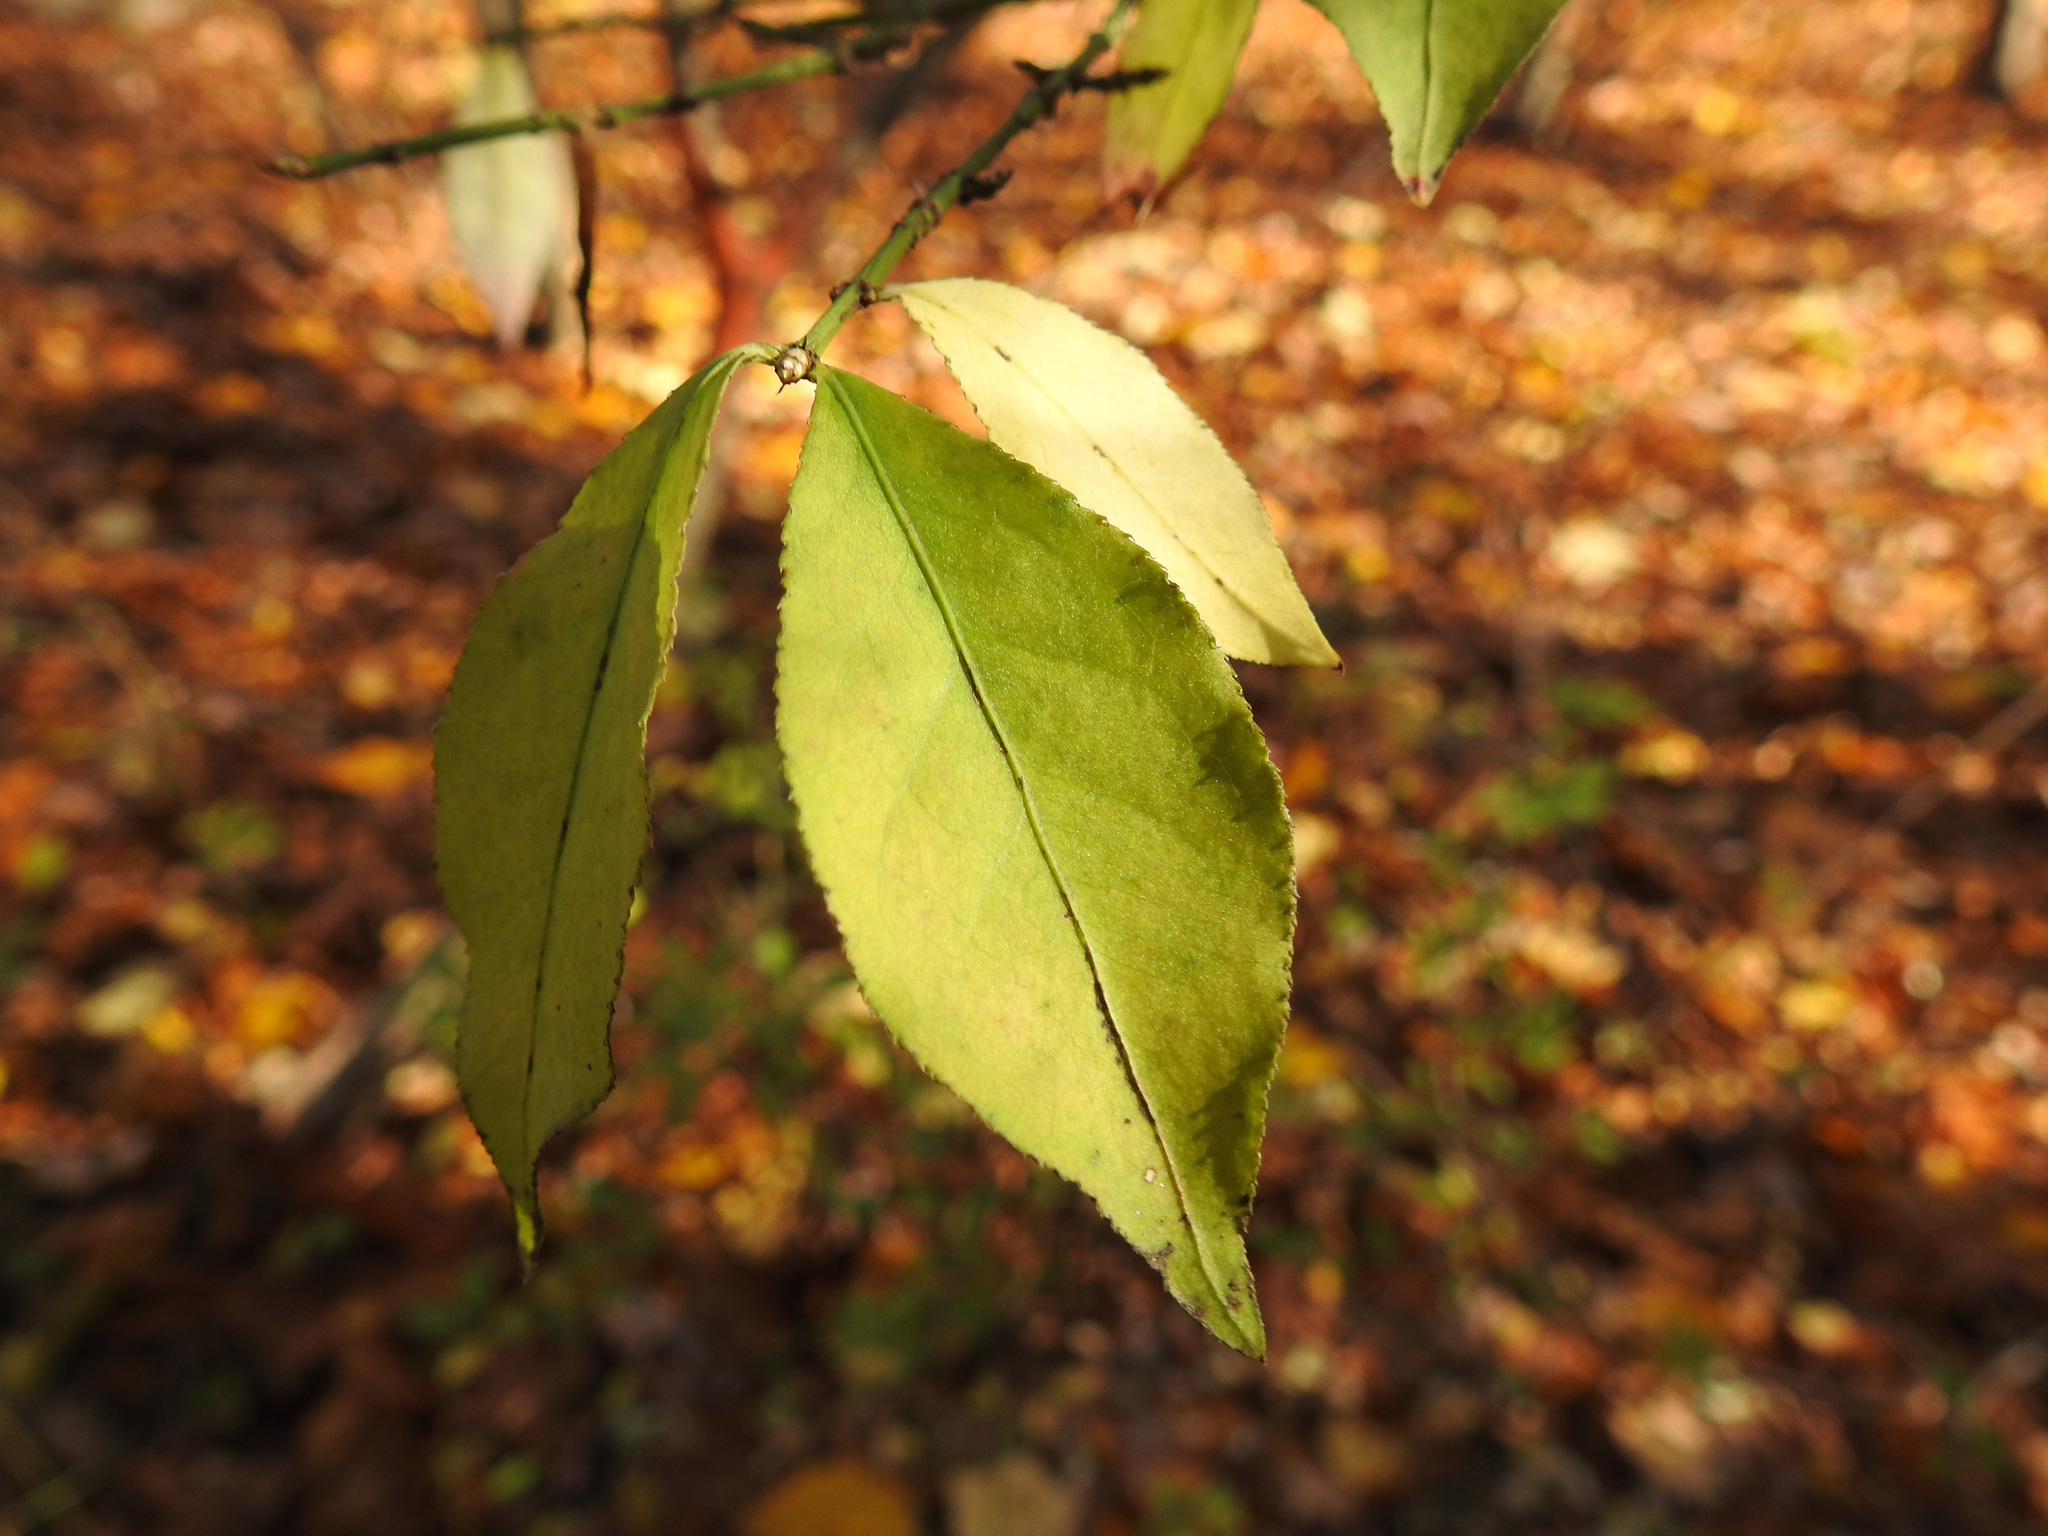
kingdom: Plantae
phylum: Tracheophyta
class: Magnoliopsida
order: Celastrales
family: Celastraceae
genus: Euonymus
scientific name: Euonymus alatus
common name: Winged euonymus
